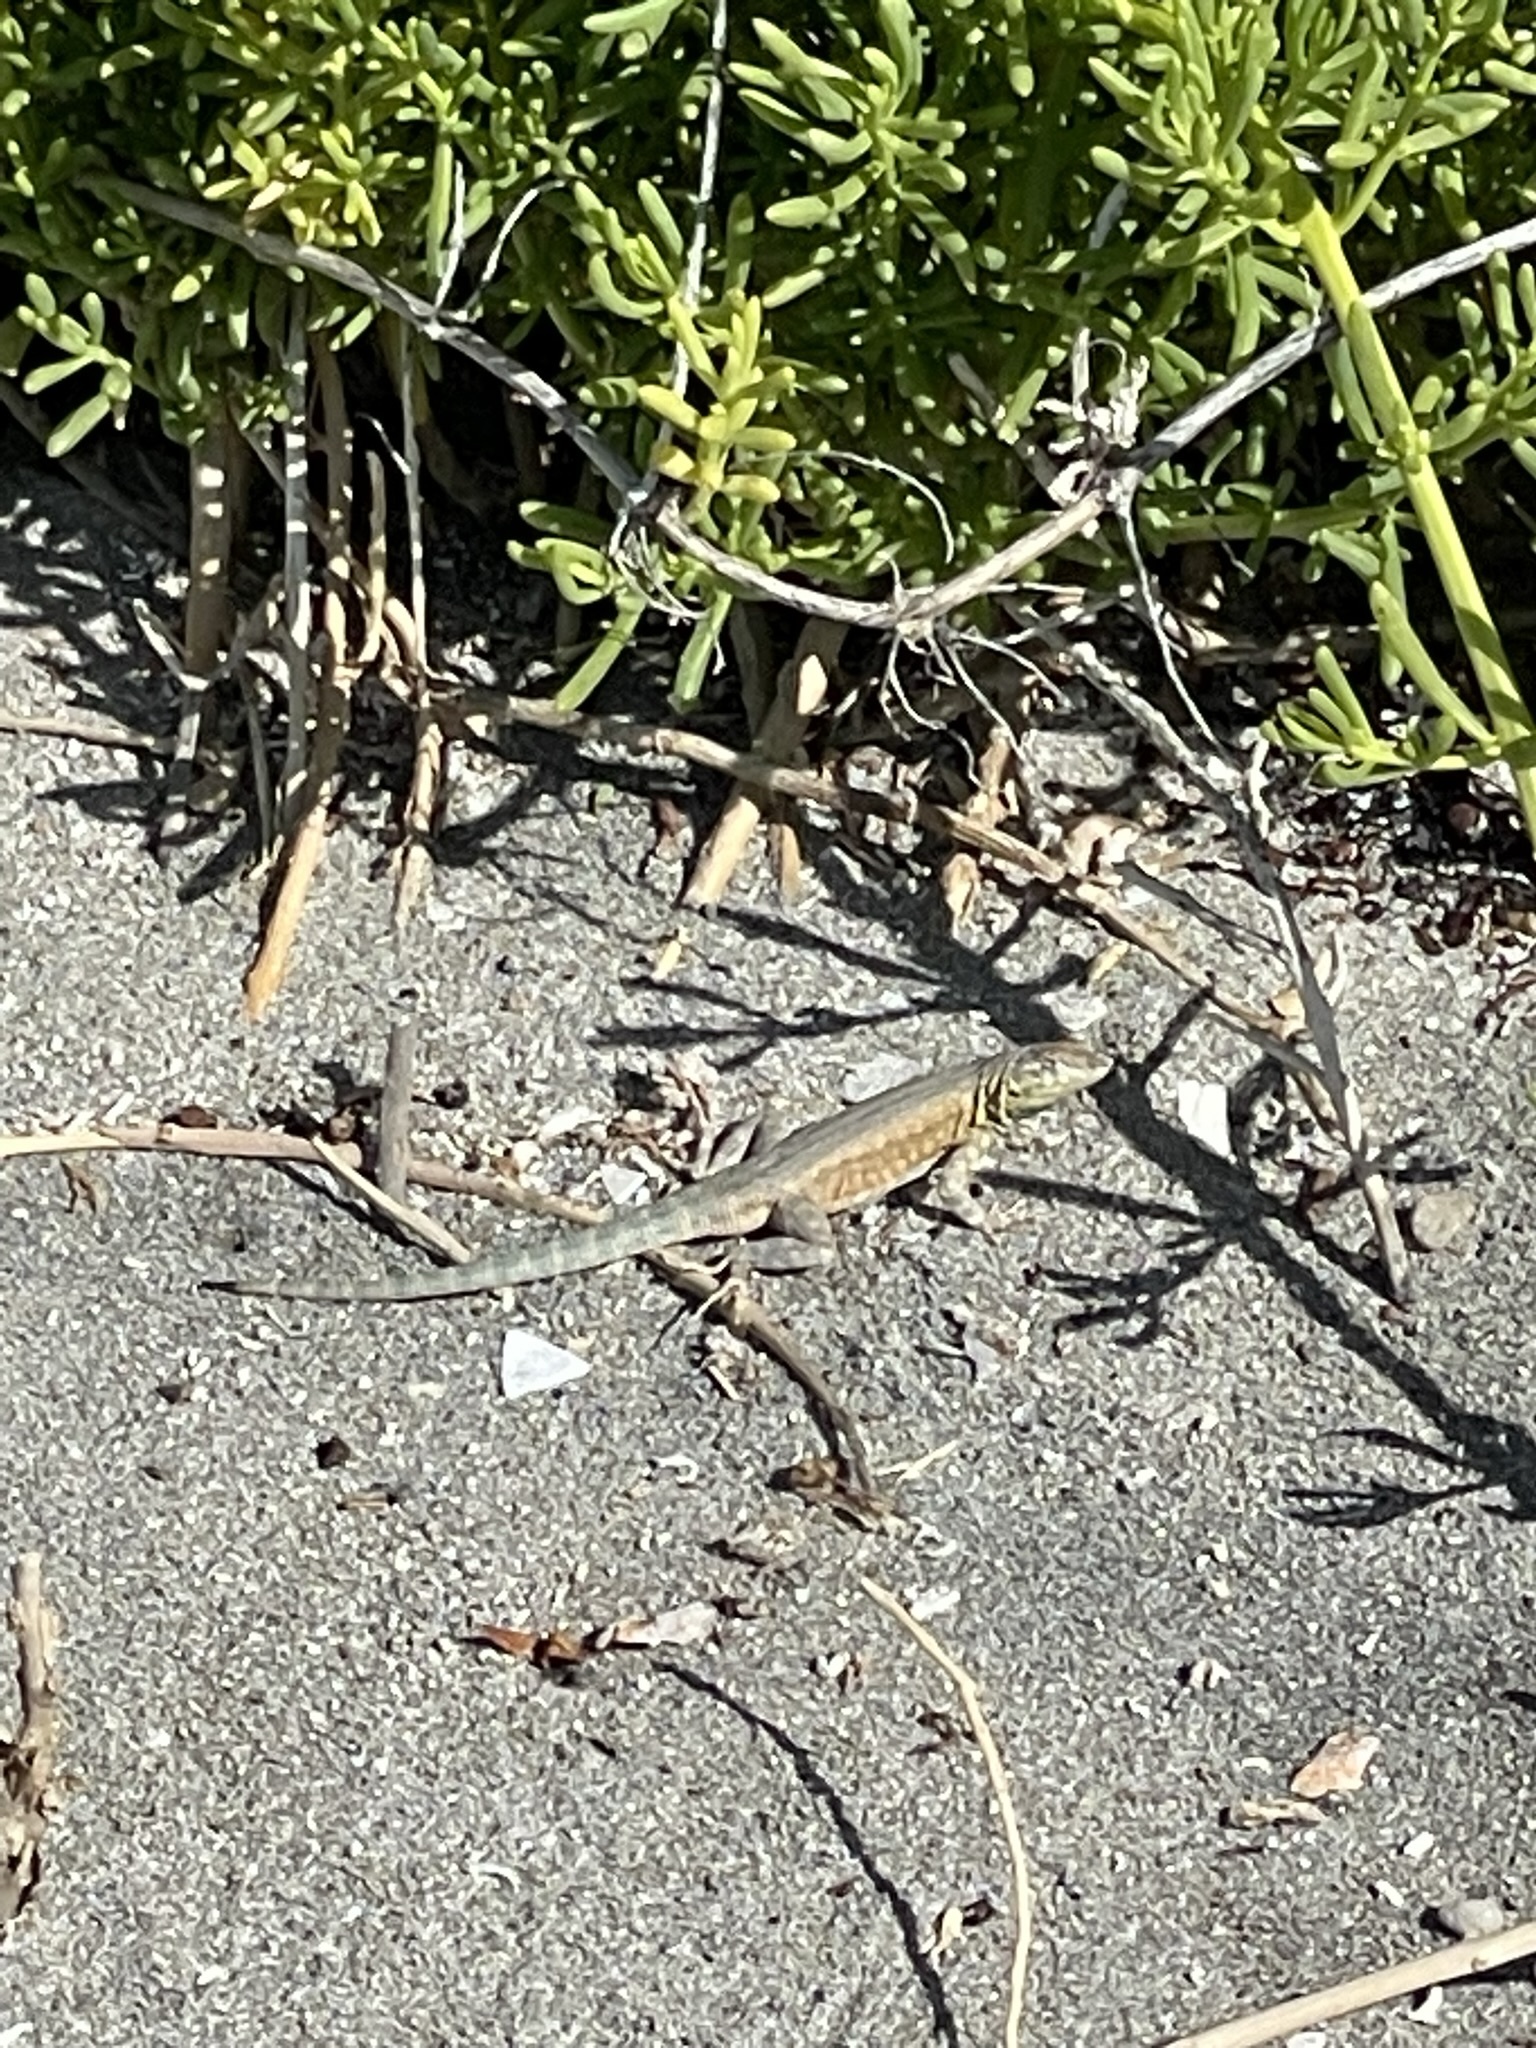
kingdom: Animalia
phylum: Chordata
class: Squamata
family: Phrynosomatidae
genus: Uta
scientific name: Uta stansburiana
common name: Side-blotched lizard
